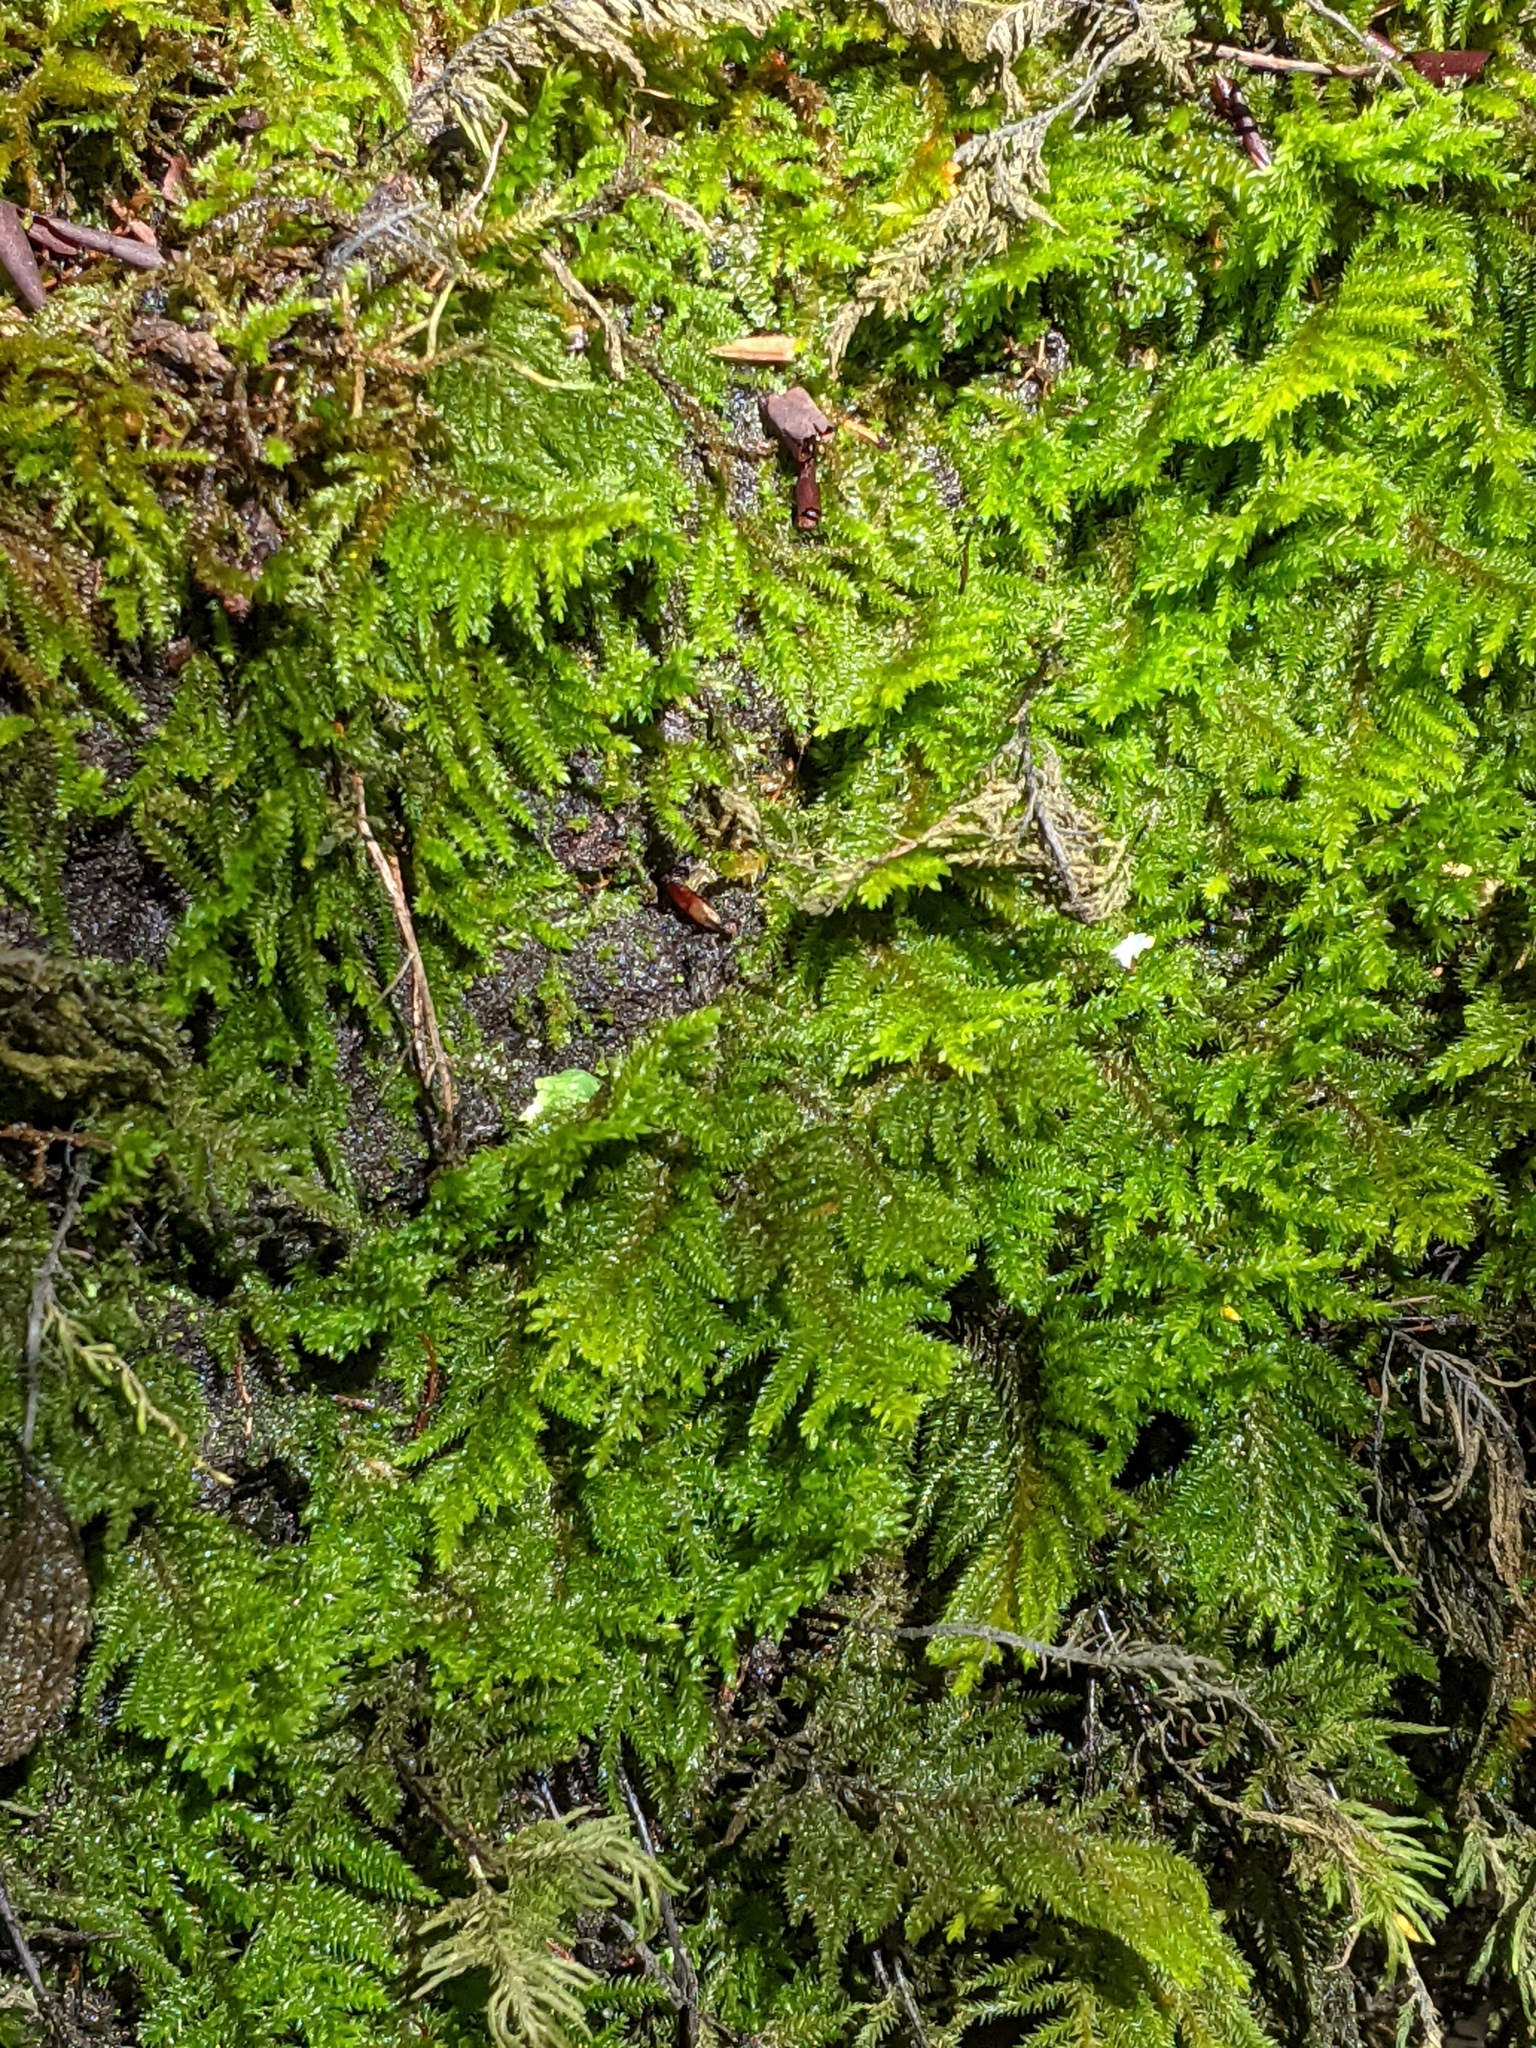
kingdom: Plantae
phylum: Bryophyta
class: Bryopsida
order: Hypnales
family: Cryphaeaceae
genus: Dendroalsia
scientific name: Dendroalsia abietina
